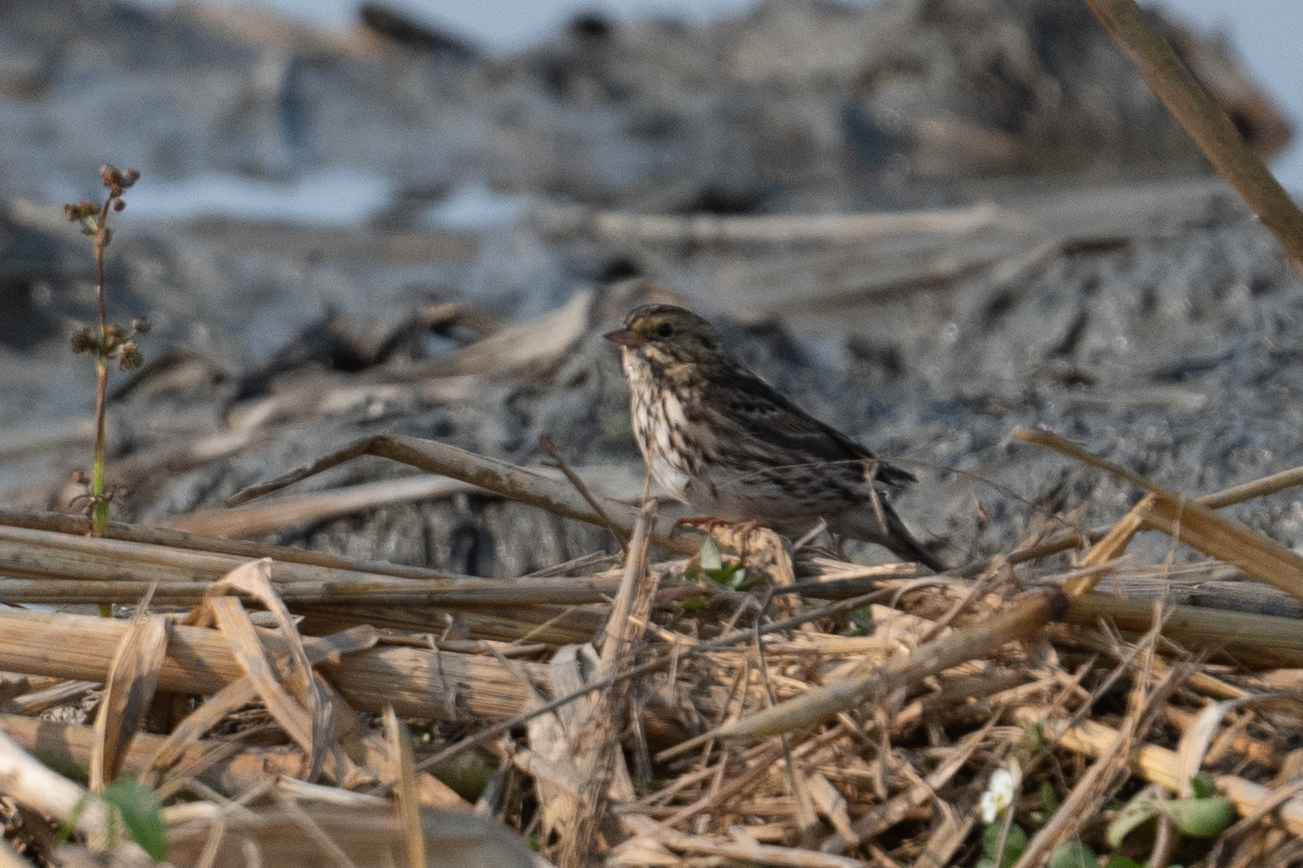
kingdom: Animalia
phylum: Chordata
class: Aves
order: Passeriformes
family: Passerellidae
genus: Passerculus
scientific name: Passerculus sandwichensis
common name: Savannah sparrow
